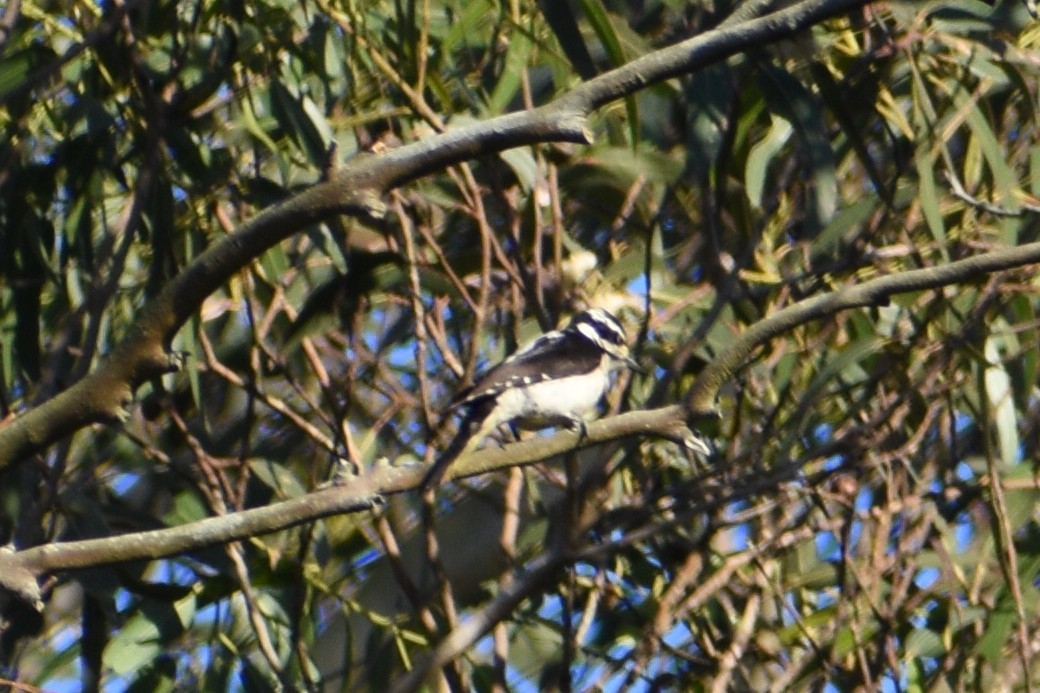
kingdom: Animalia
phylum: Chordata
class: Aves
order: Piciformes
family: Picidae
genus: Dryobates
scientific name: Dryobates pubescens
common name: Downy woodpecker
